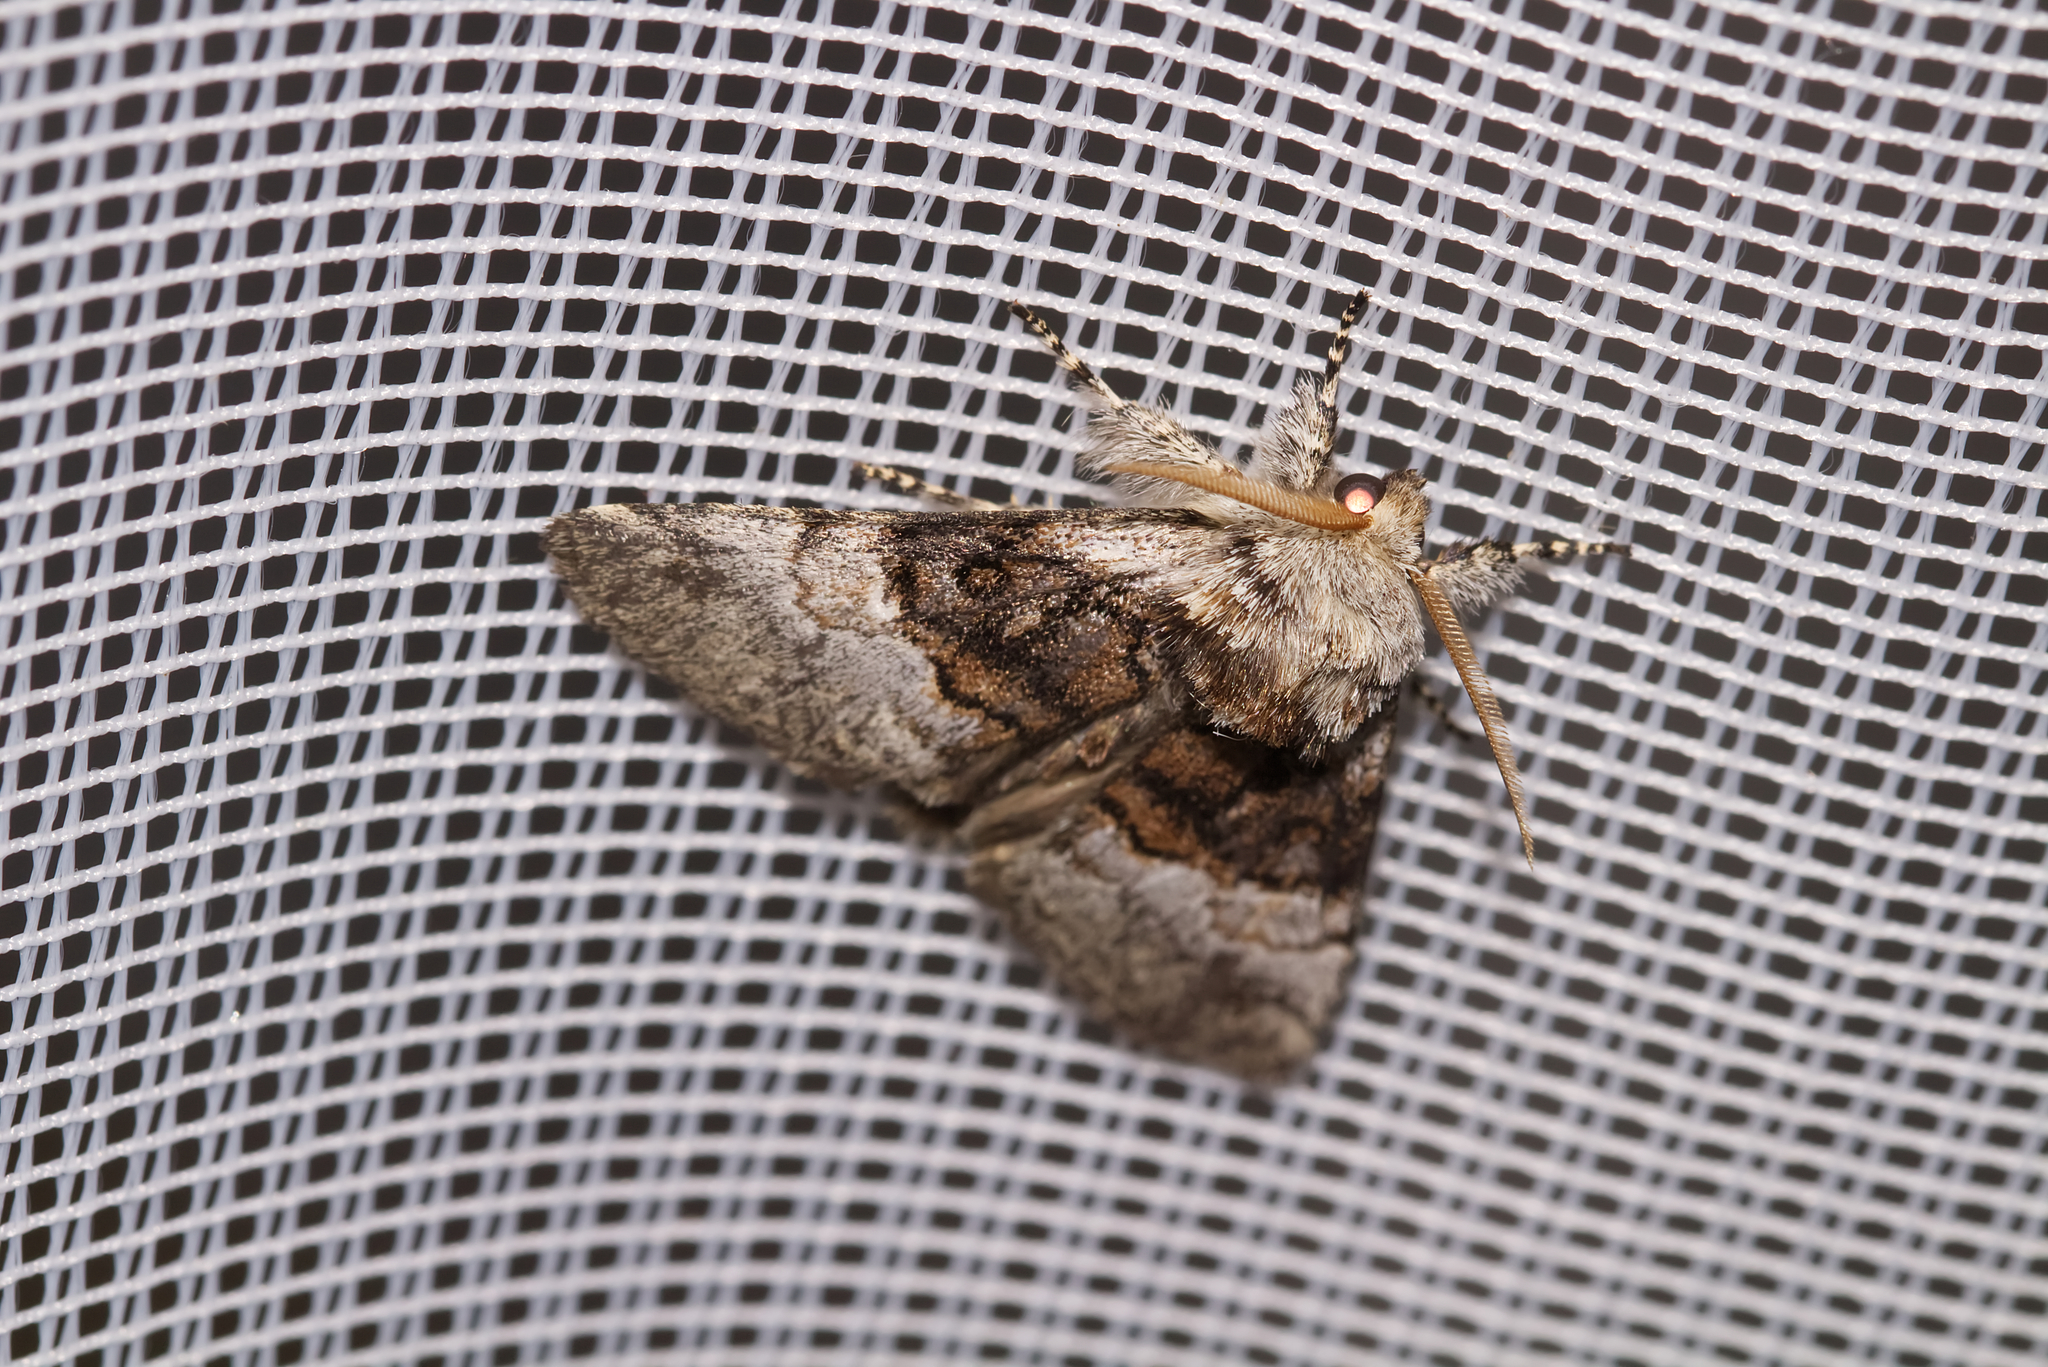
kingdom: Animalia
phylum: Arthropoda
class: Insecta
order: Lepidoptera
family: Noctuidae
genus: Colocasia
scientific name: Colocasia coryli
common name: Nut-tree tussock
